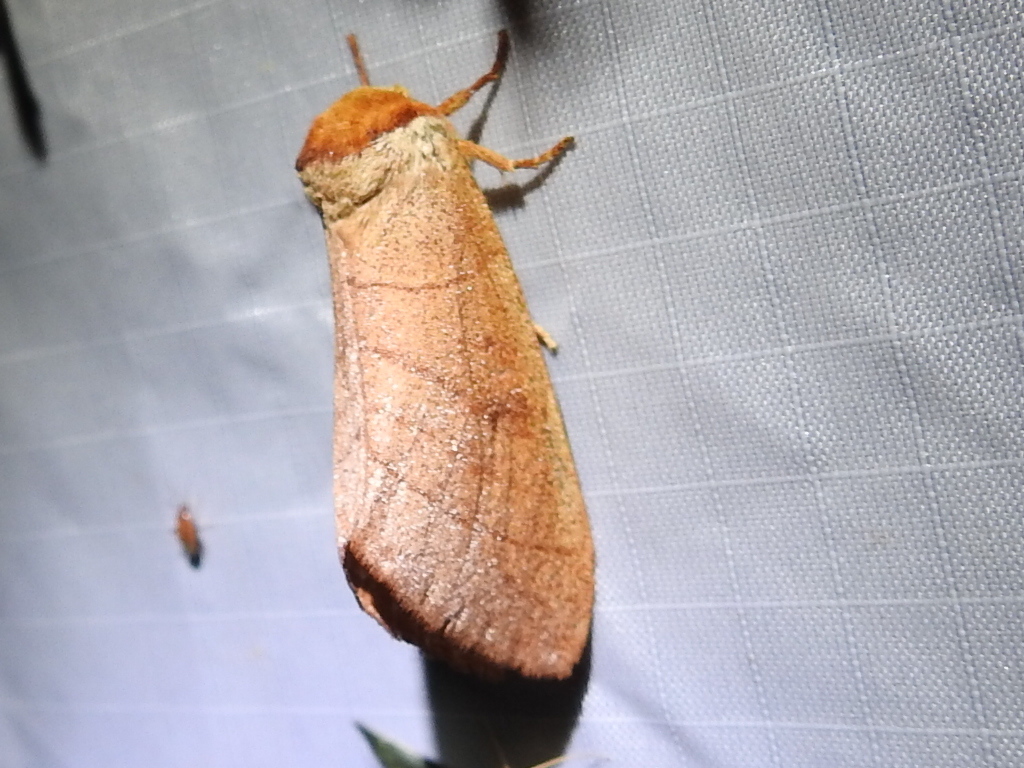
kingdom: Animalia
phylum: Arthropoda
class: Insecta
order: Lepidoptera
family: Notodontidae
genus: Datana
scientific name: Datana perspicua
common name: Spotted datana
